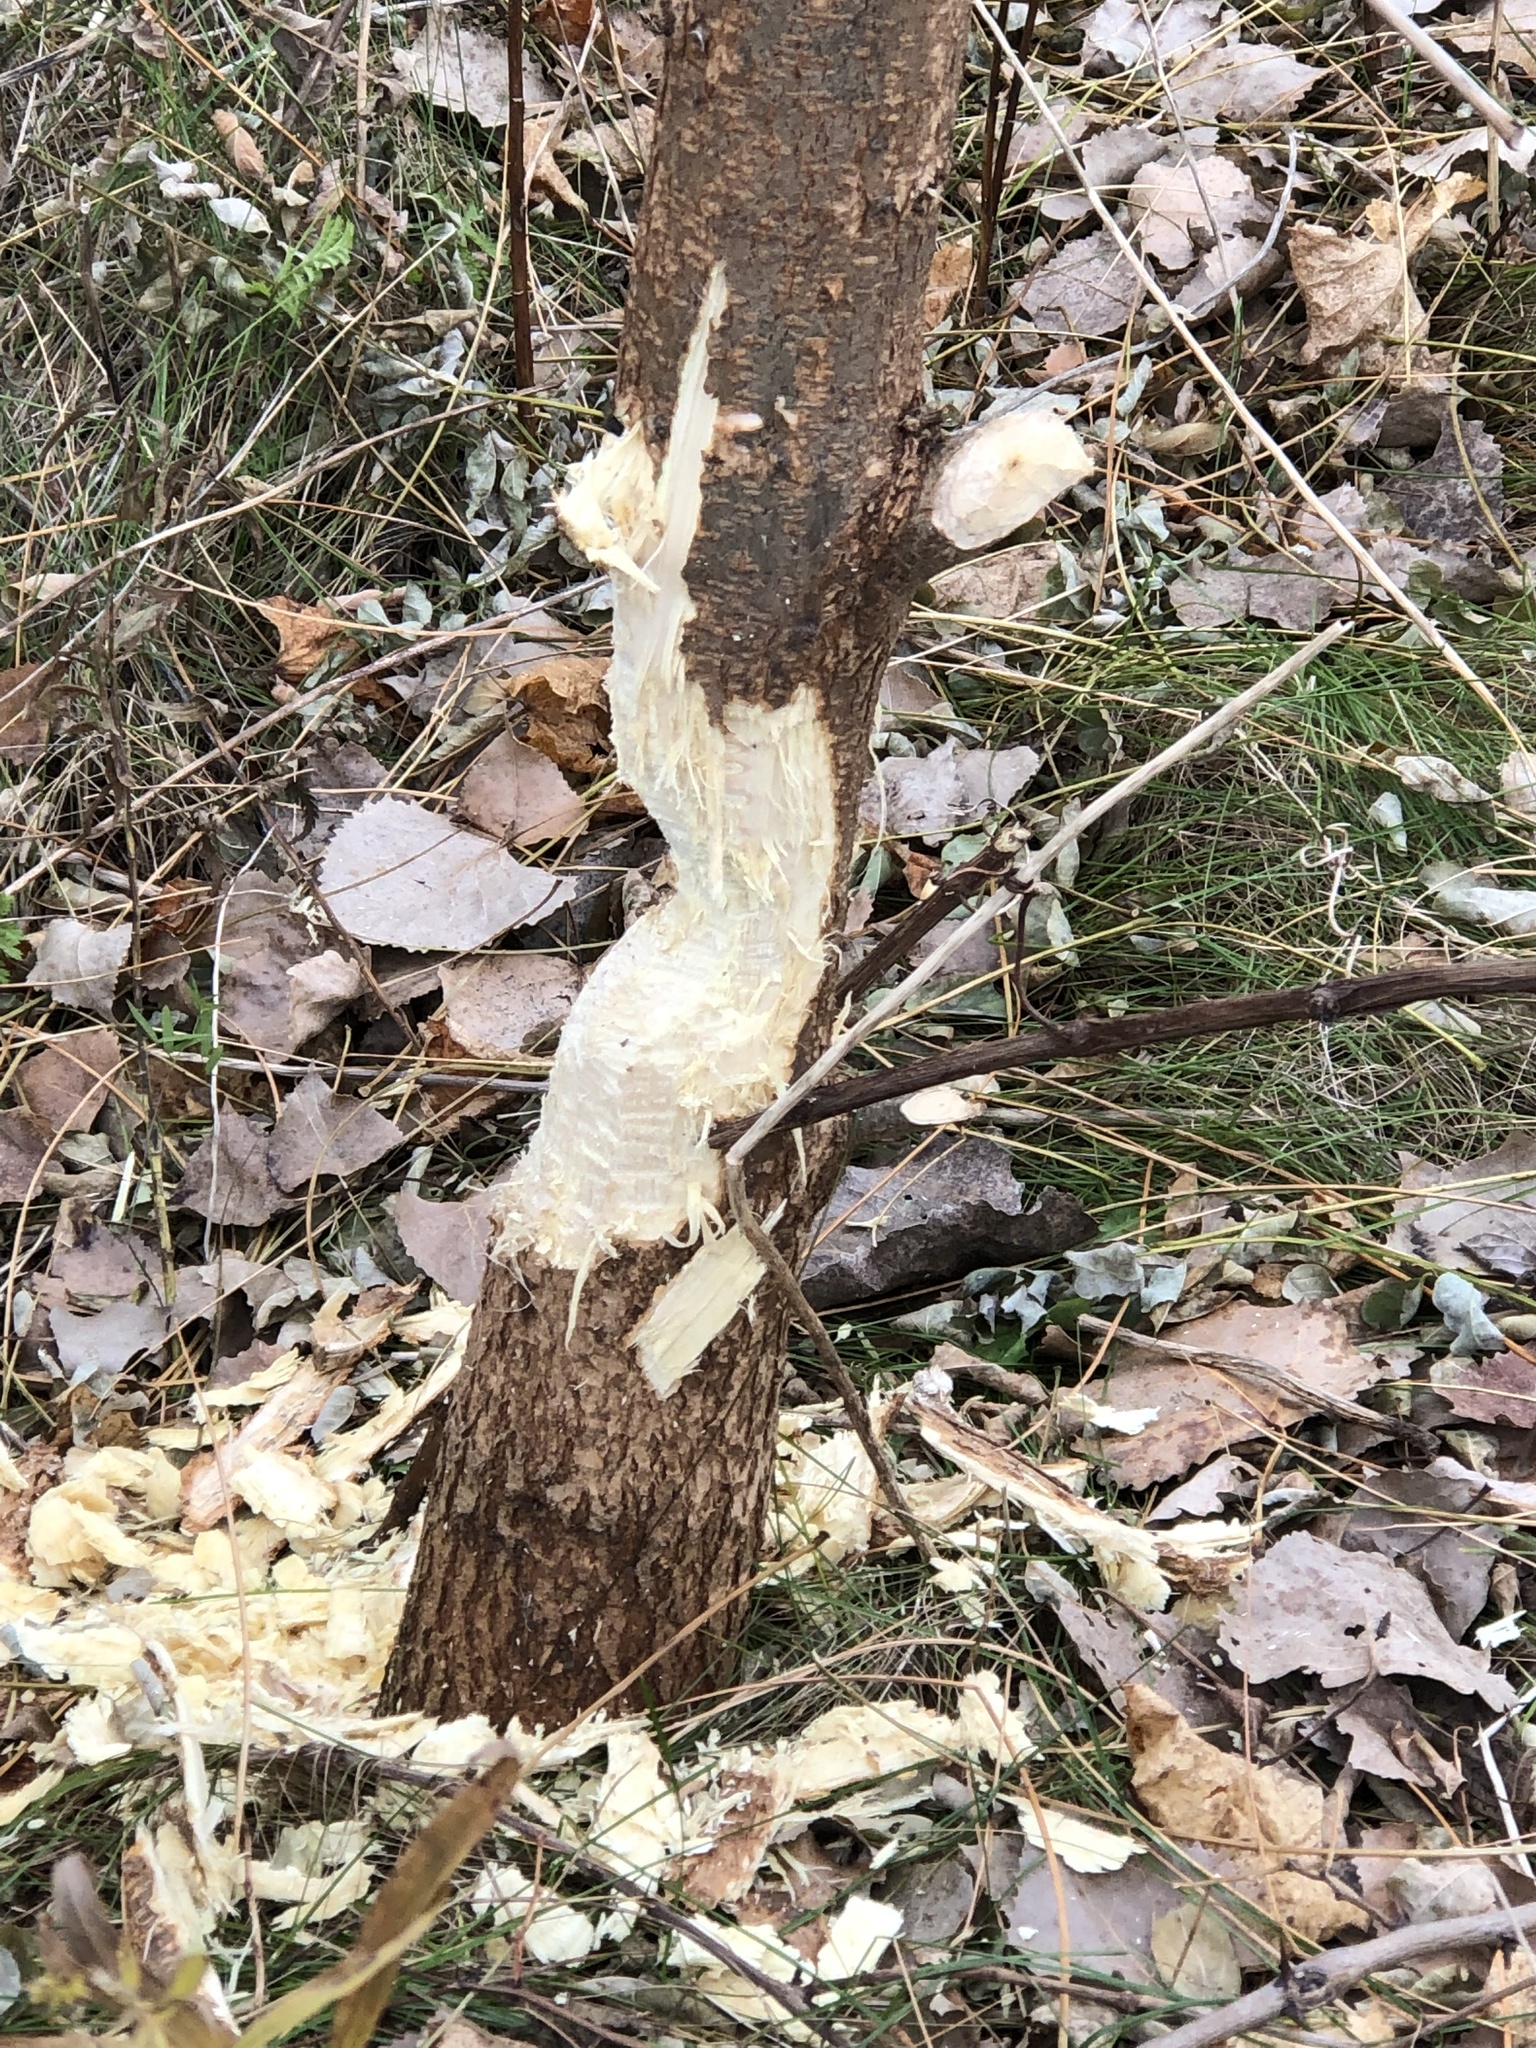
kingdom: Animalia
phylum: Chordata
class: Mammalia
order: Rodentia
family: Castoridae
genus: Castor
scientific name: Castor canadensis
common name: American beaver
